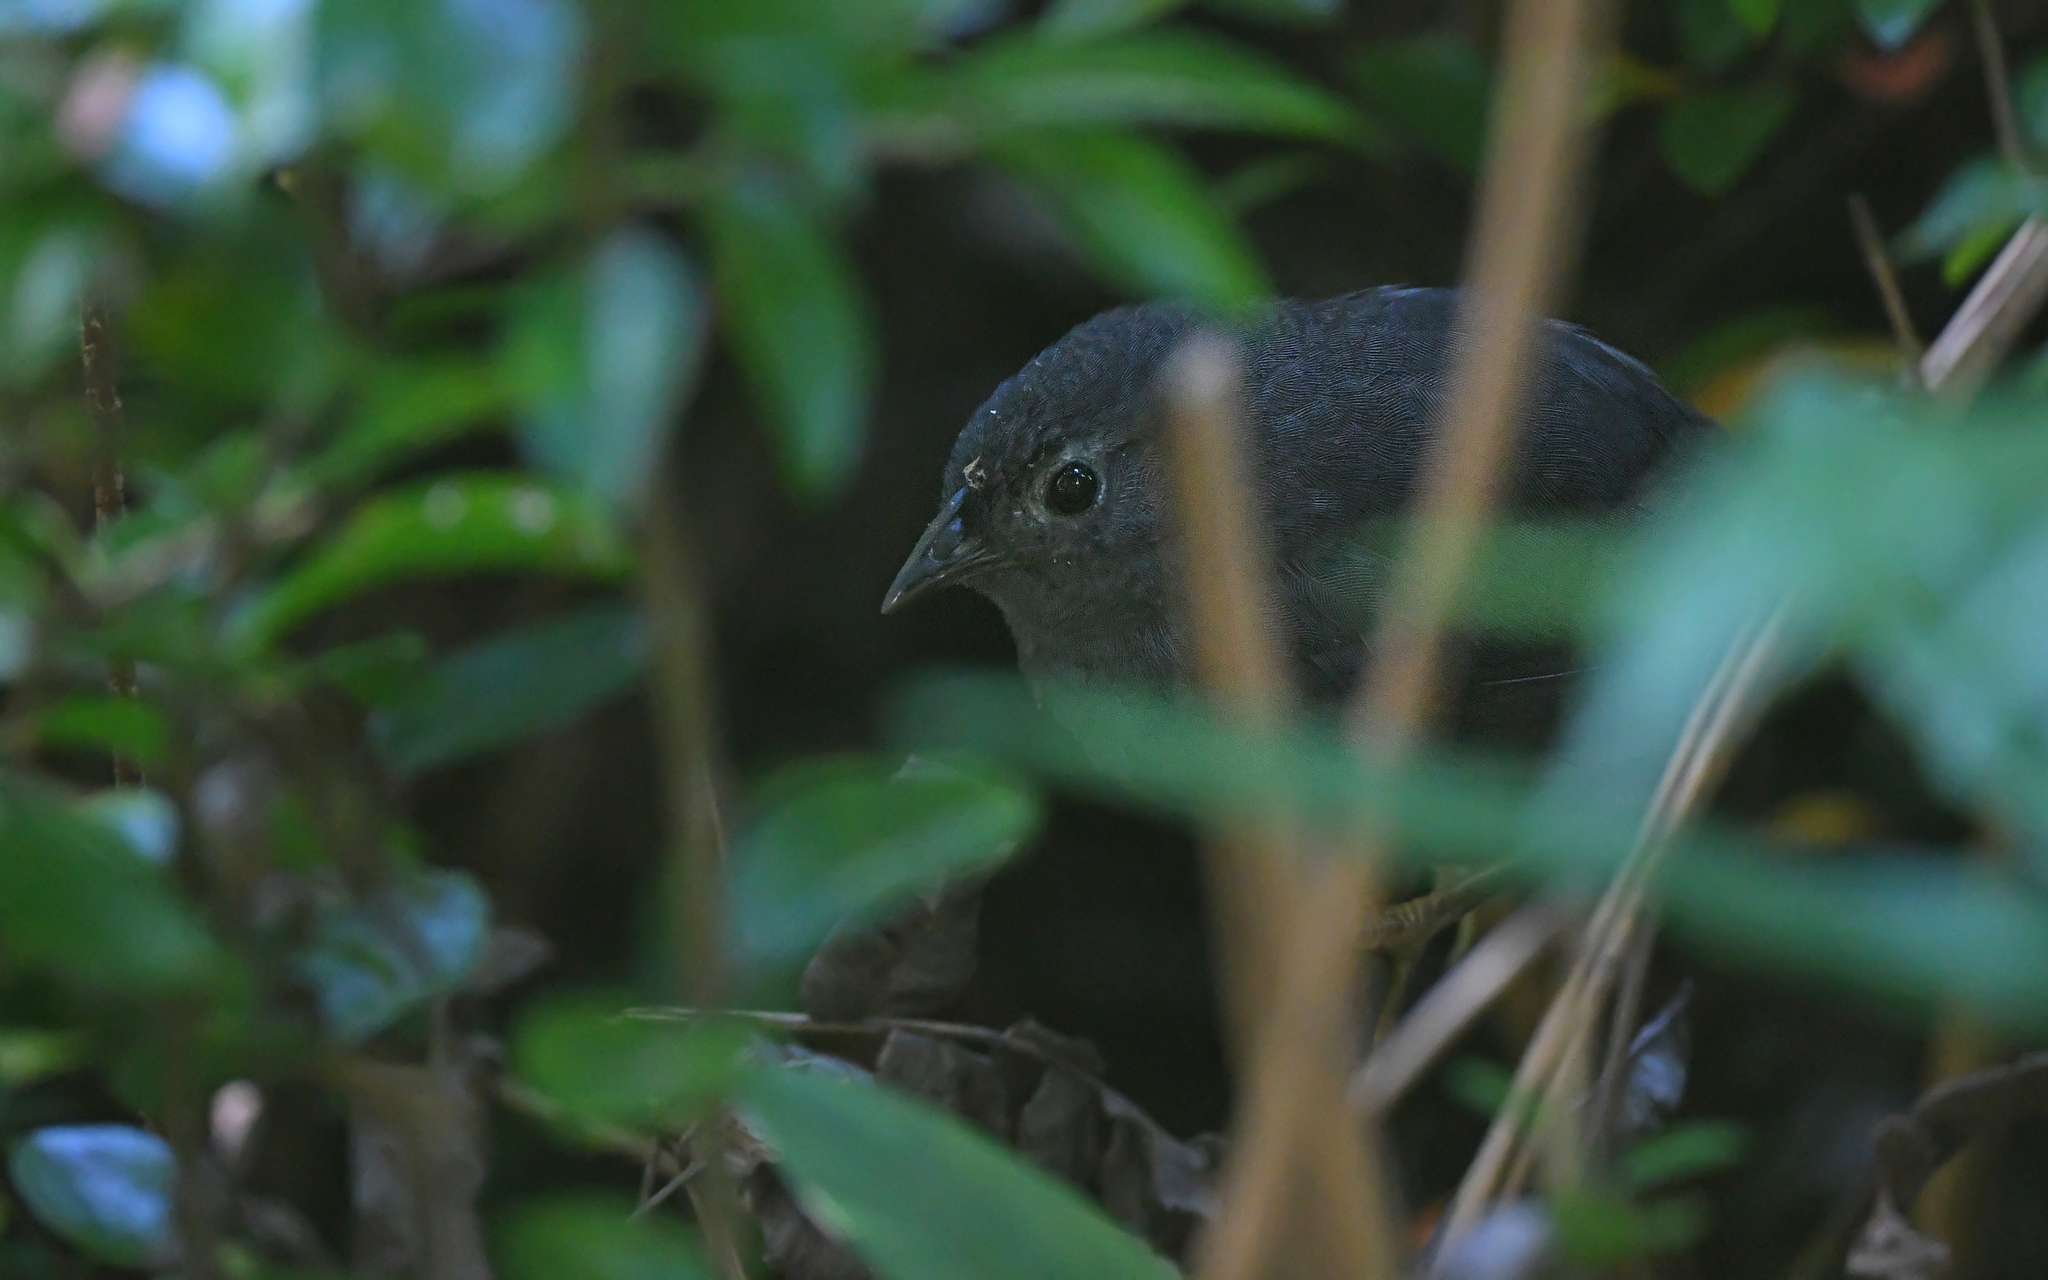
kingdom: Animalia
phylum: Chordata
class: Aves
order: Passeriformes
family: Rhinocryptidae
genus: Eugralla
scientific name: Eugralla paradoxa
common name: Ochre-flanked tapaculo
